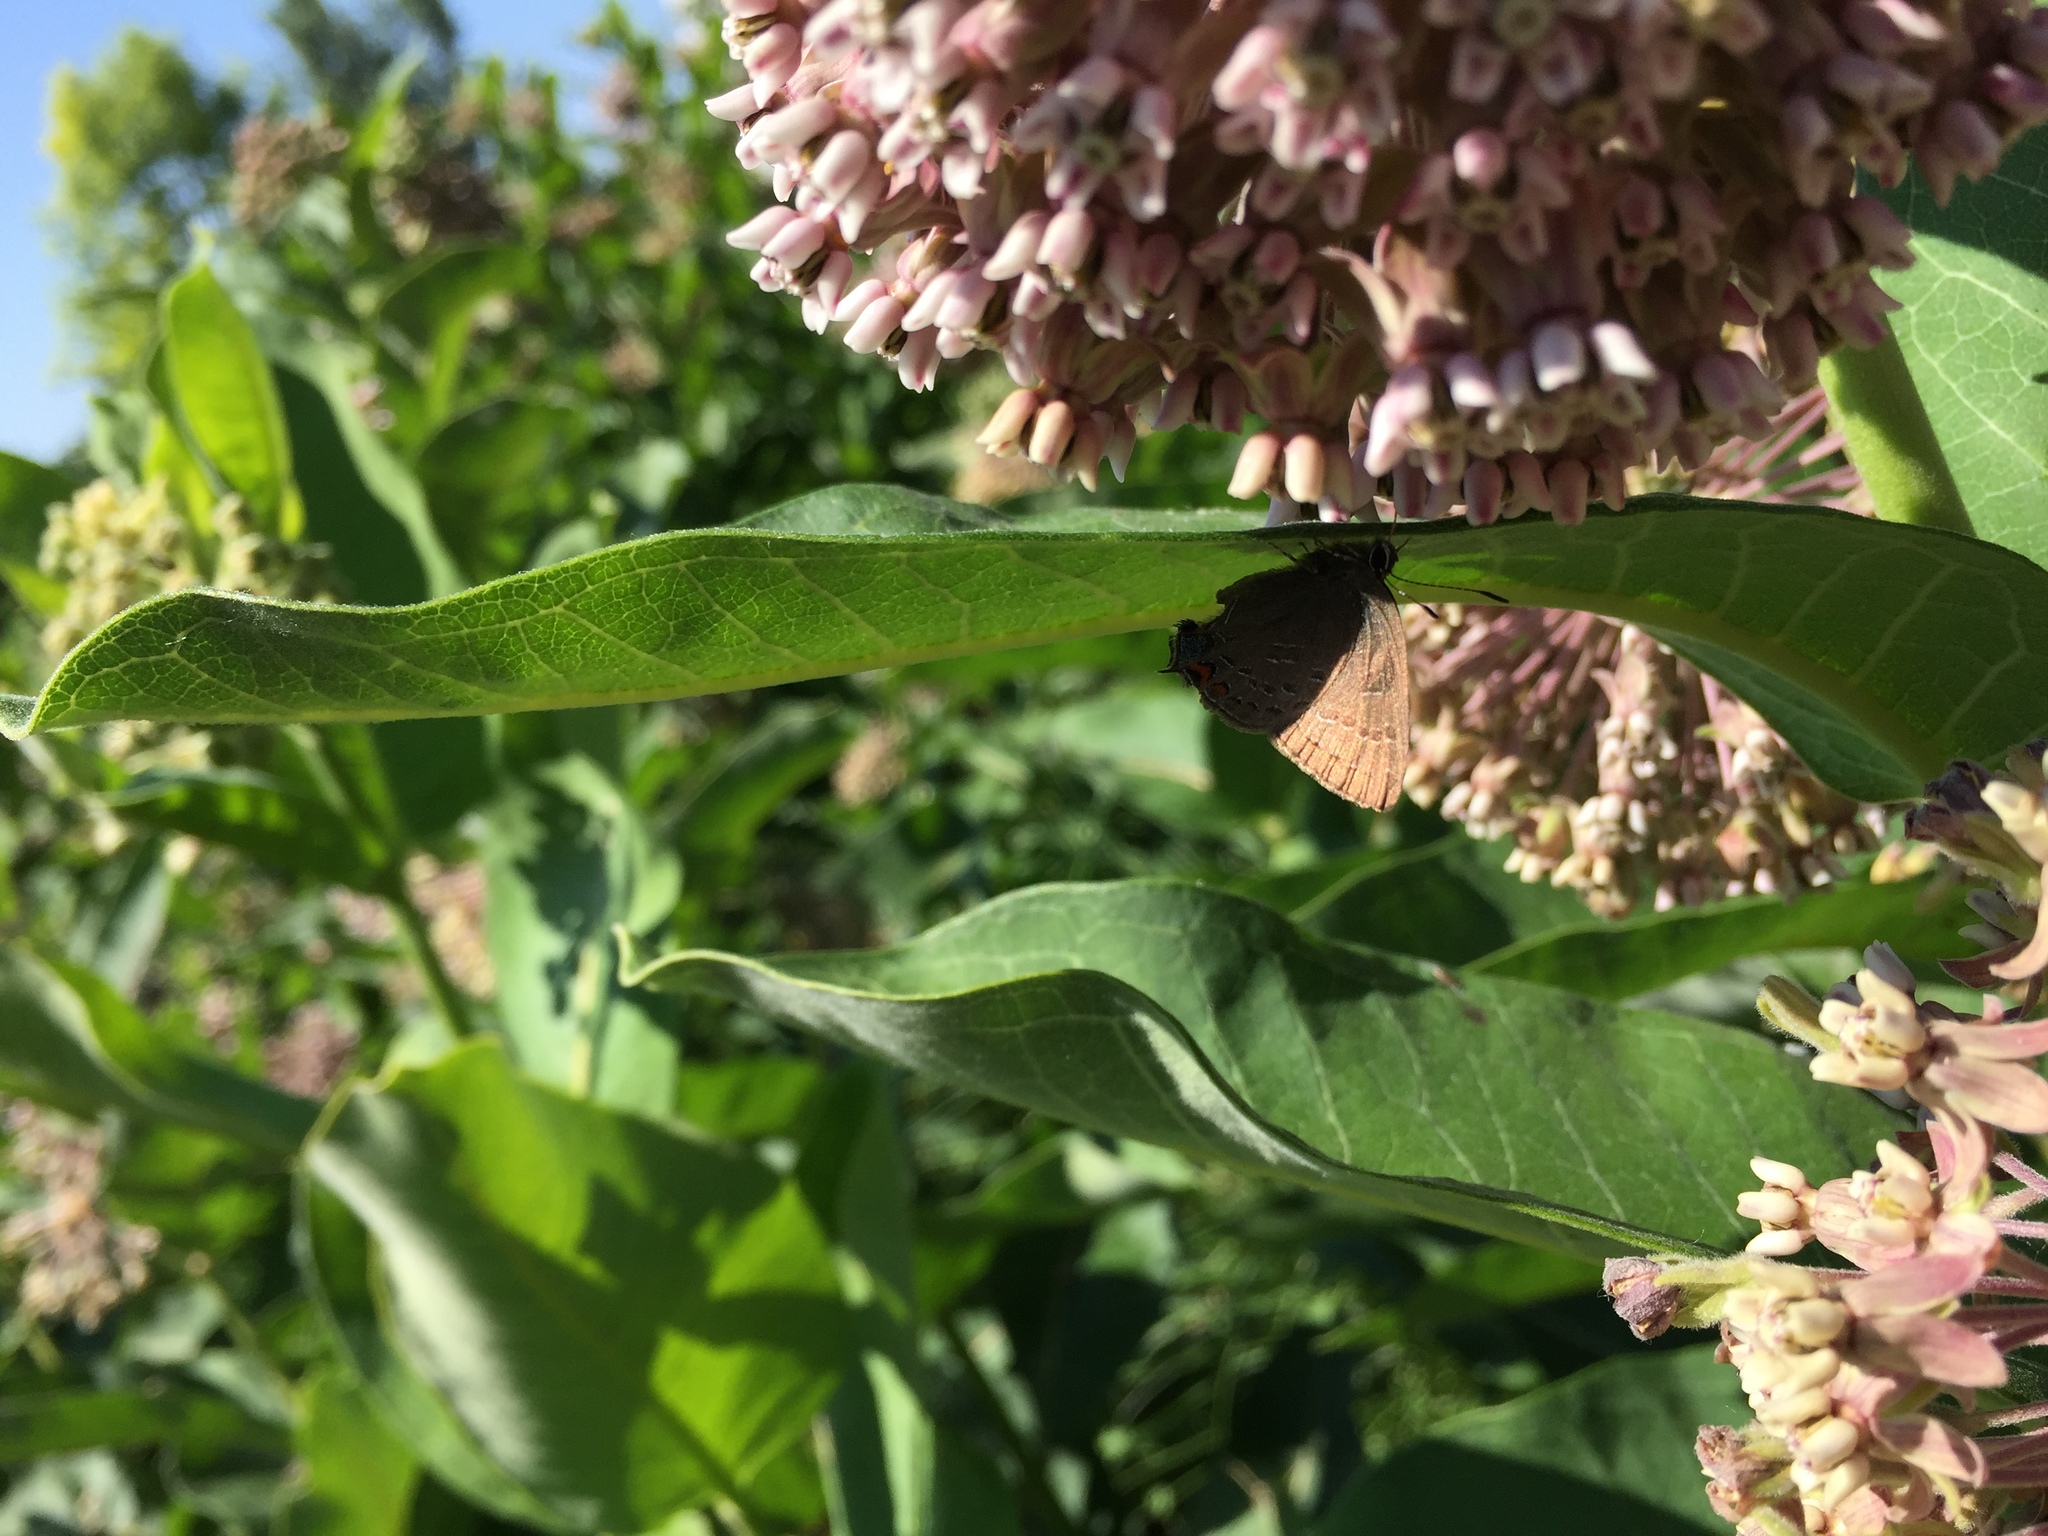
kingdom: Animalia
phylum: Arthropoda
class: Insecta
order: Lepidoptera
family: Lycaenidae
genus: Satyrium
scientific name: Satyrium calanus
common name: Banded hairstreak
